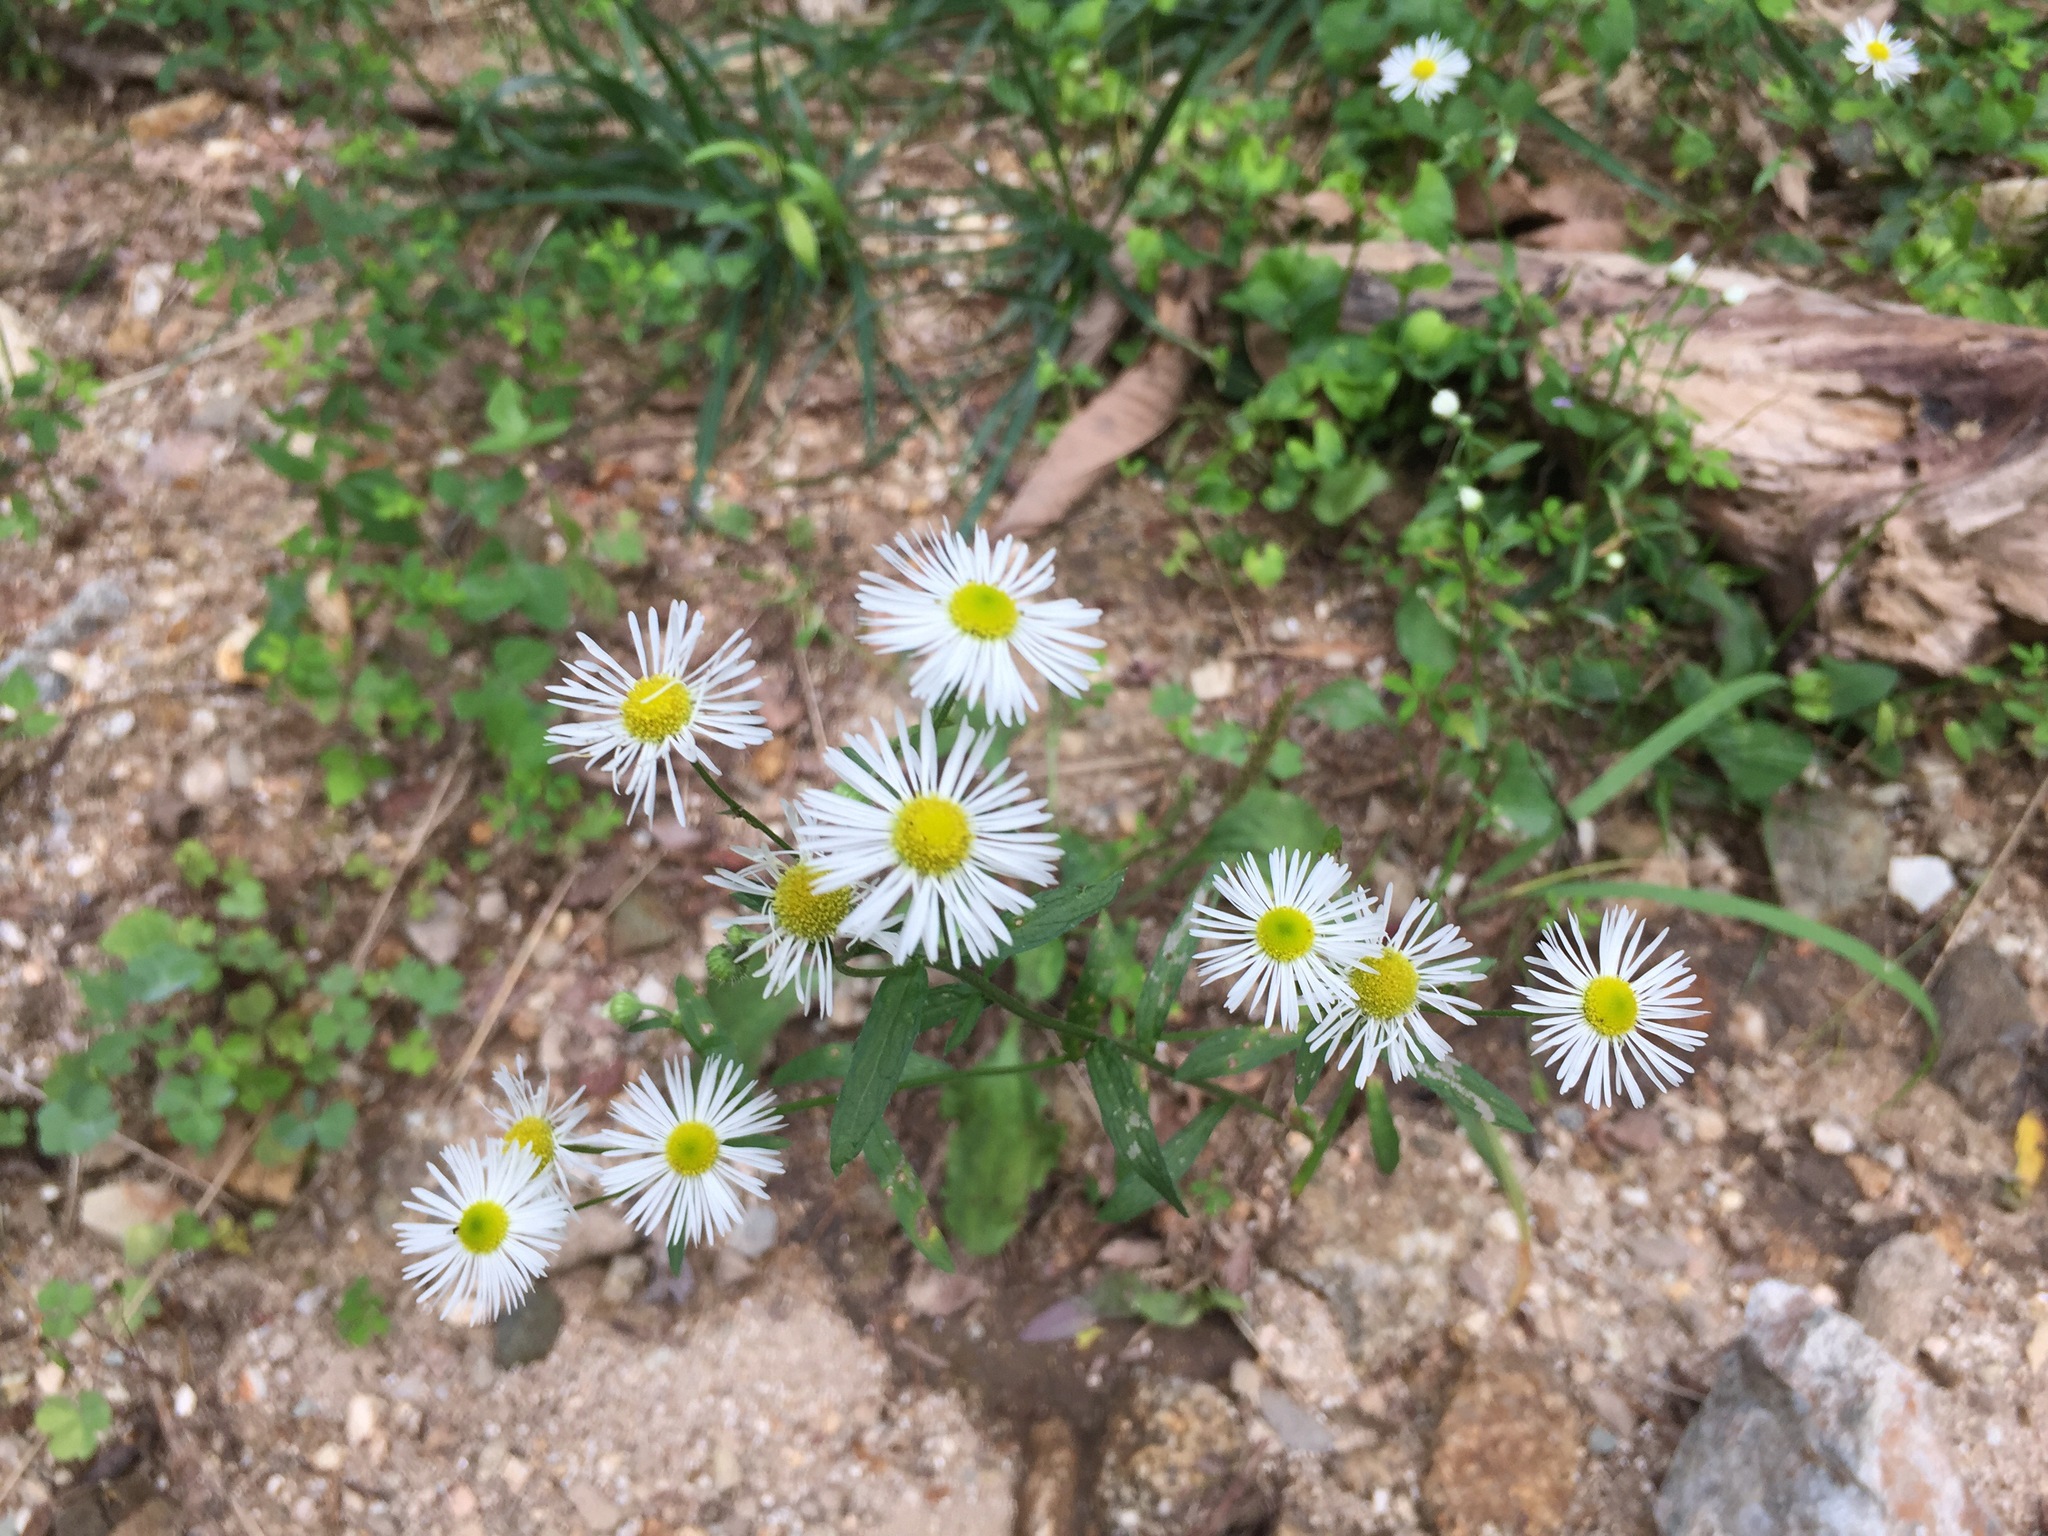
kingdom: Plantae
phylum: Tracheophyta
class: Magnoliopsida
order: Asterales
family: Asteraceae
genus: Erigeron
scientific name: Erigeron annuus
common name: Tall fleabane
